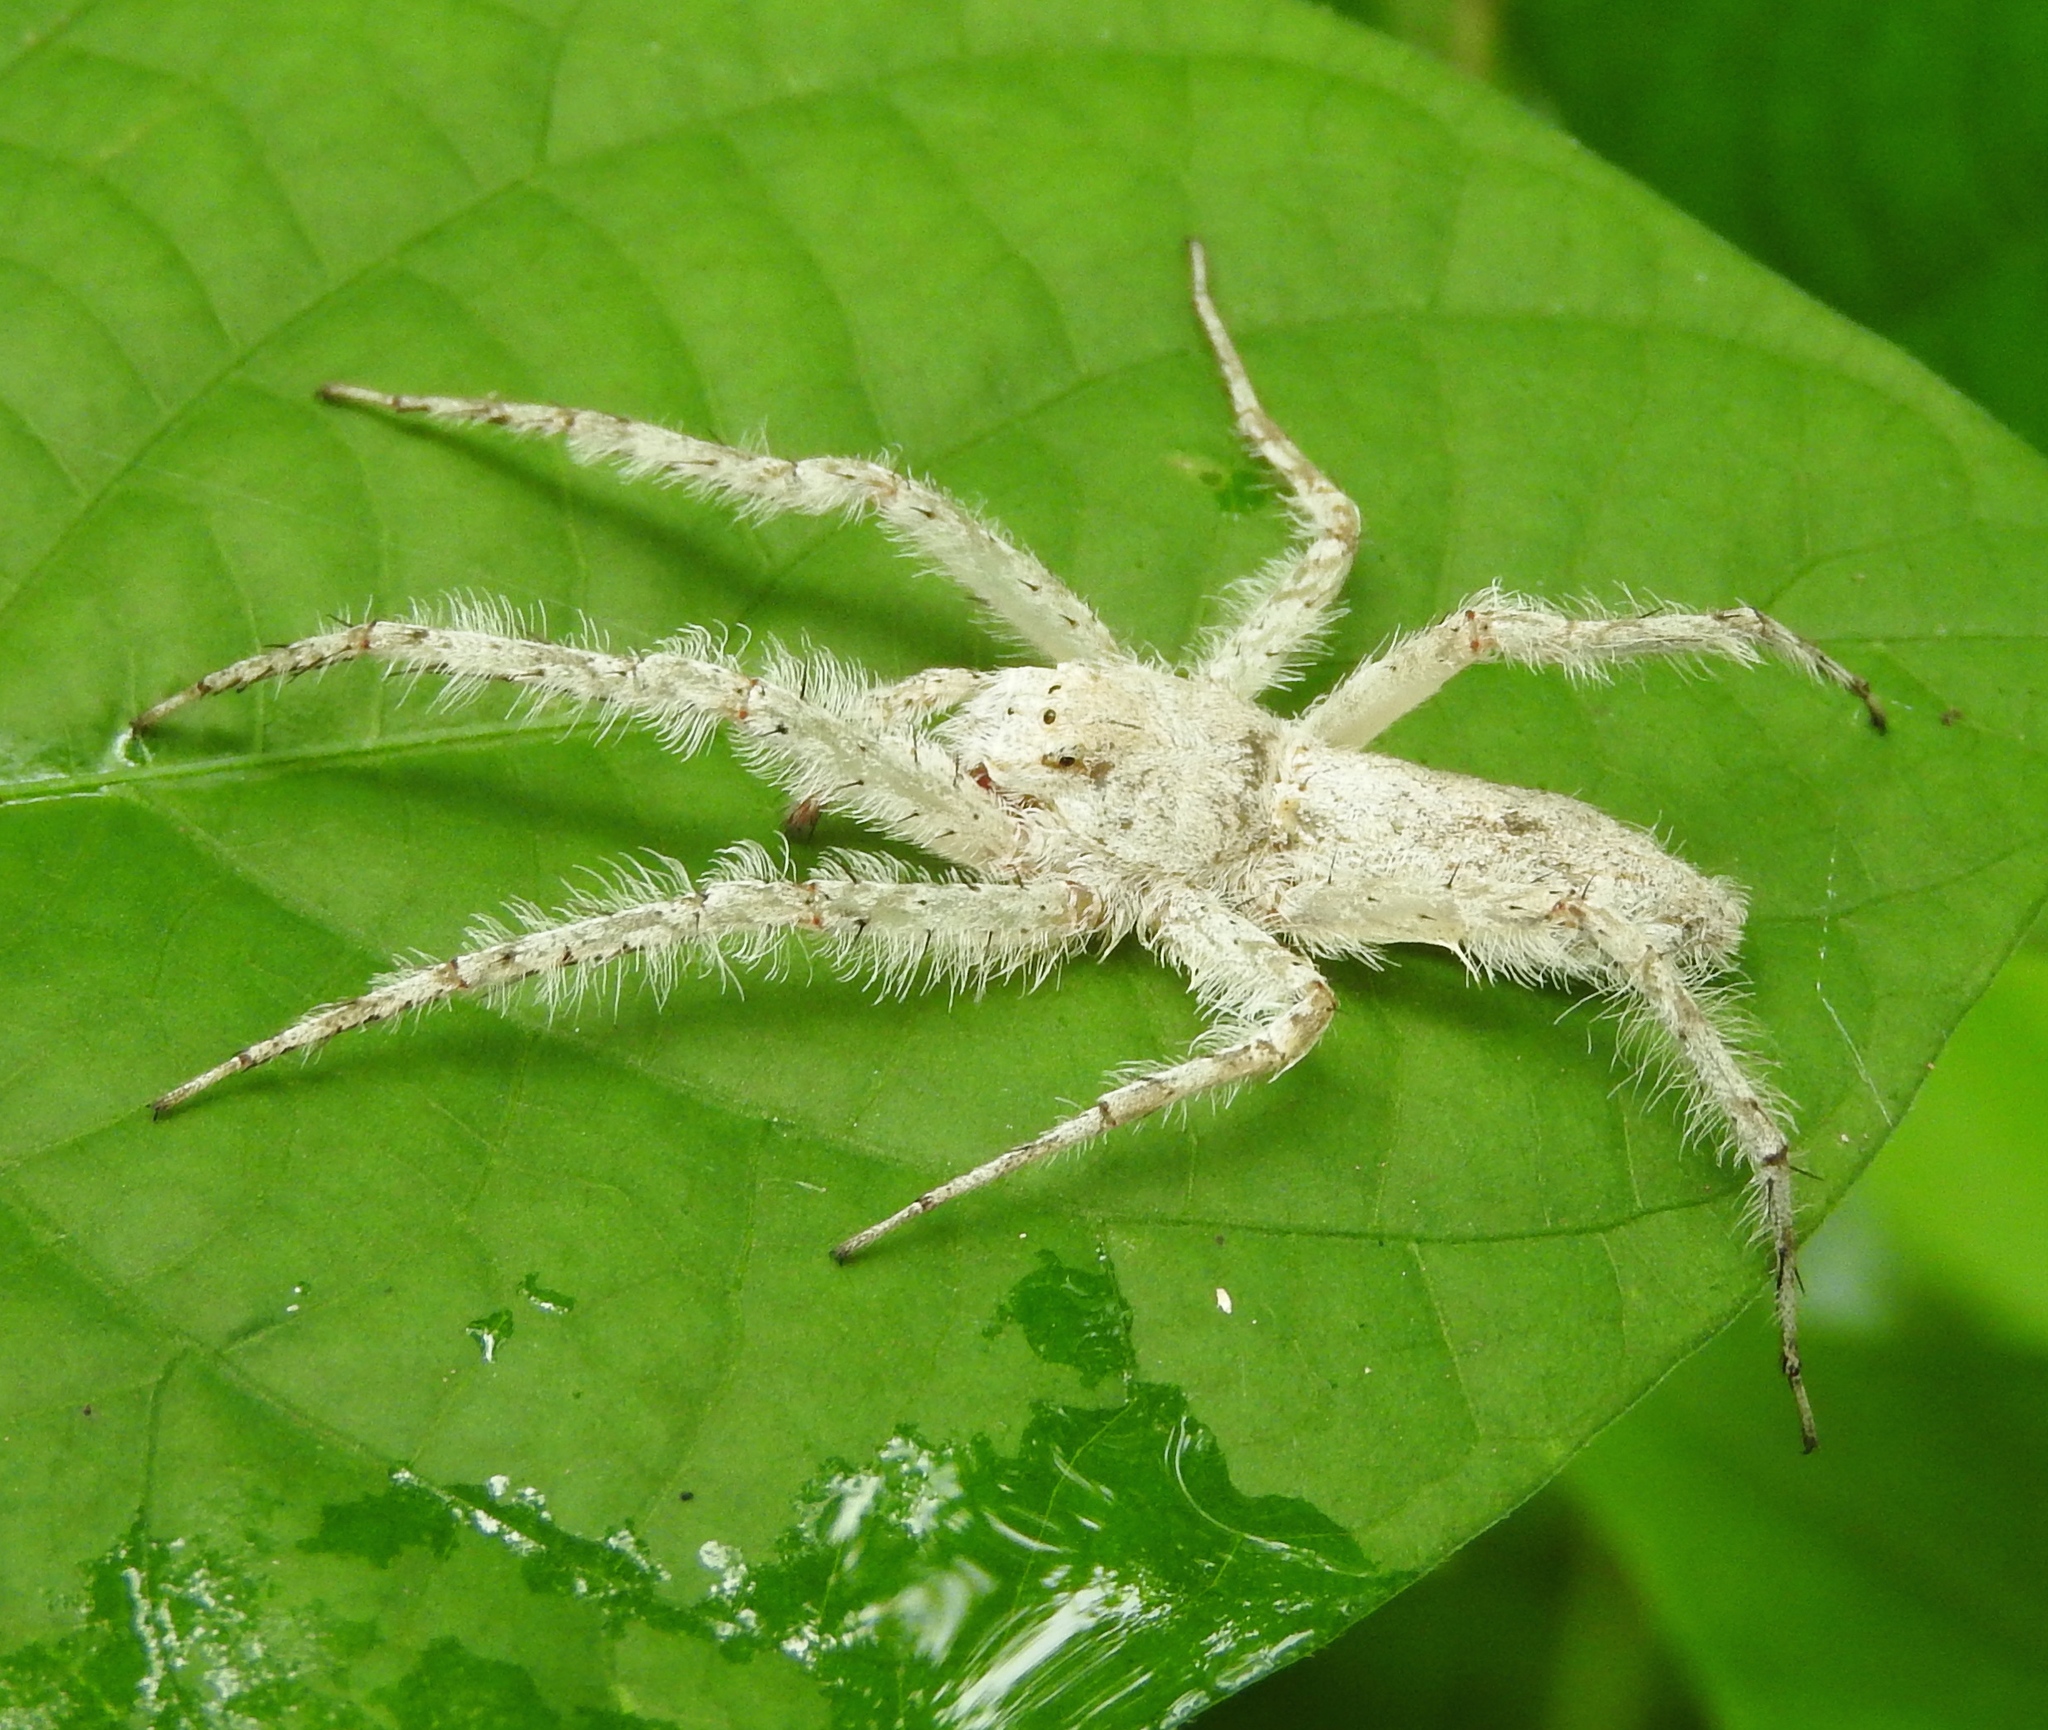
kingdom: Animalia
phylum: Arthropoda
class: Arachnida
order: Araneae
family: Senoculidae
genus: Senoculus
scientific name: Senoculus
